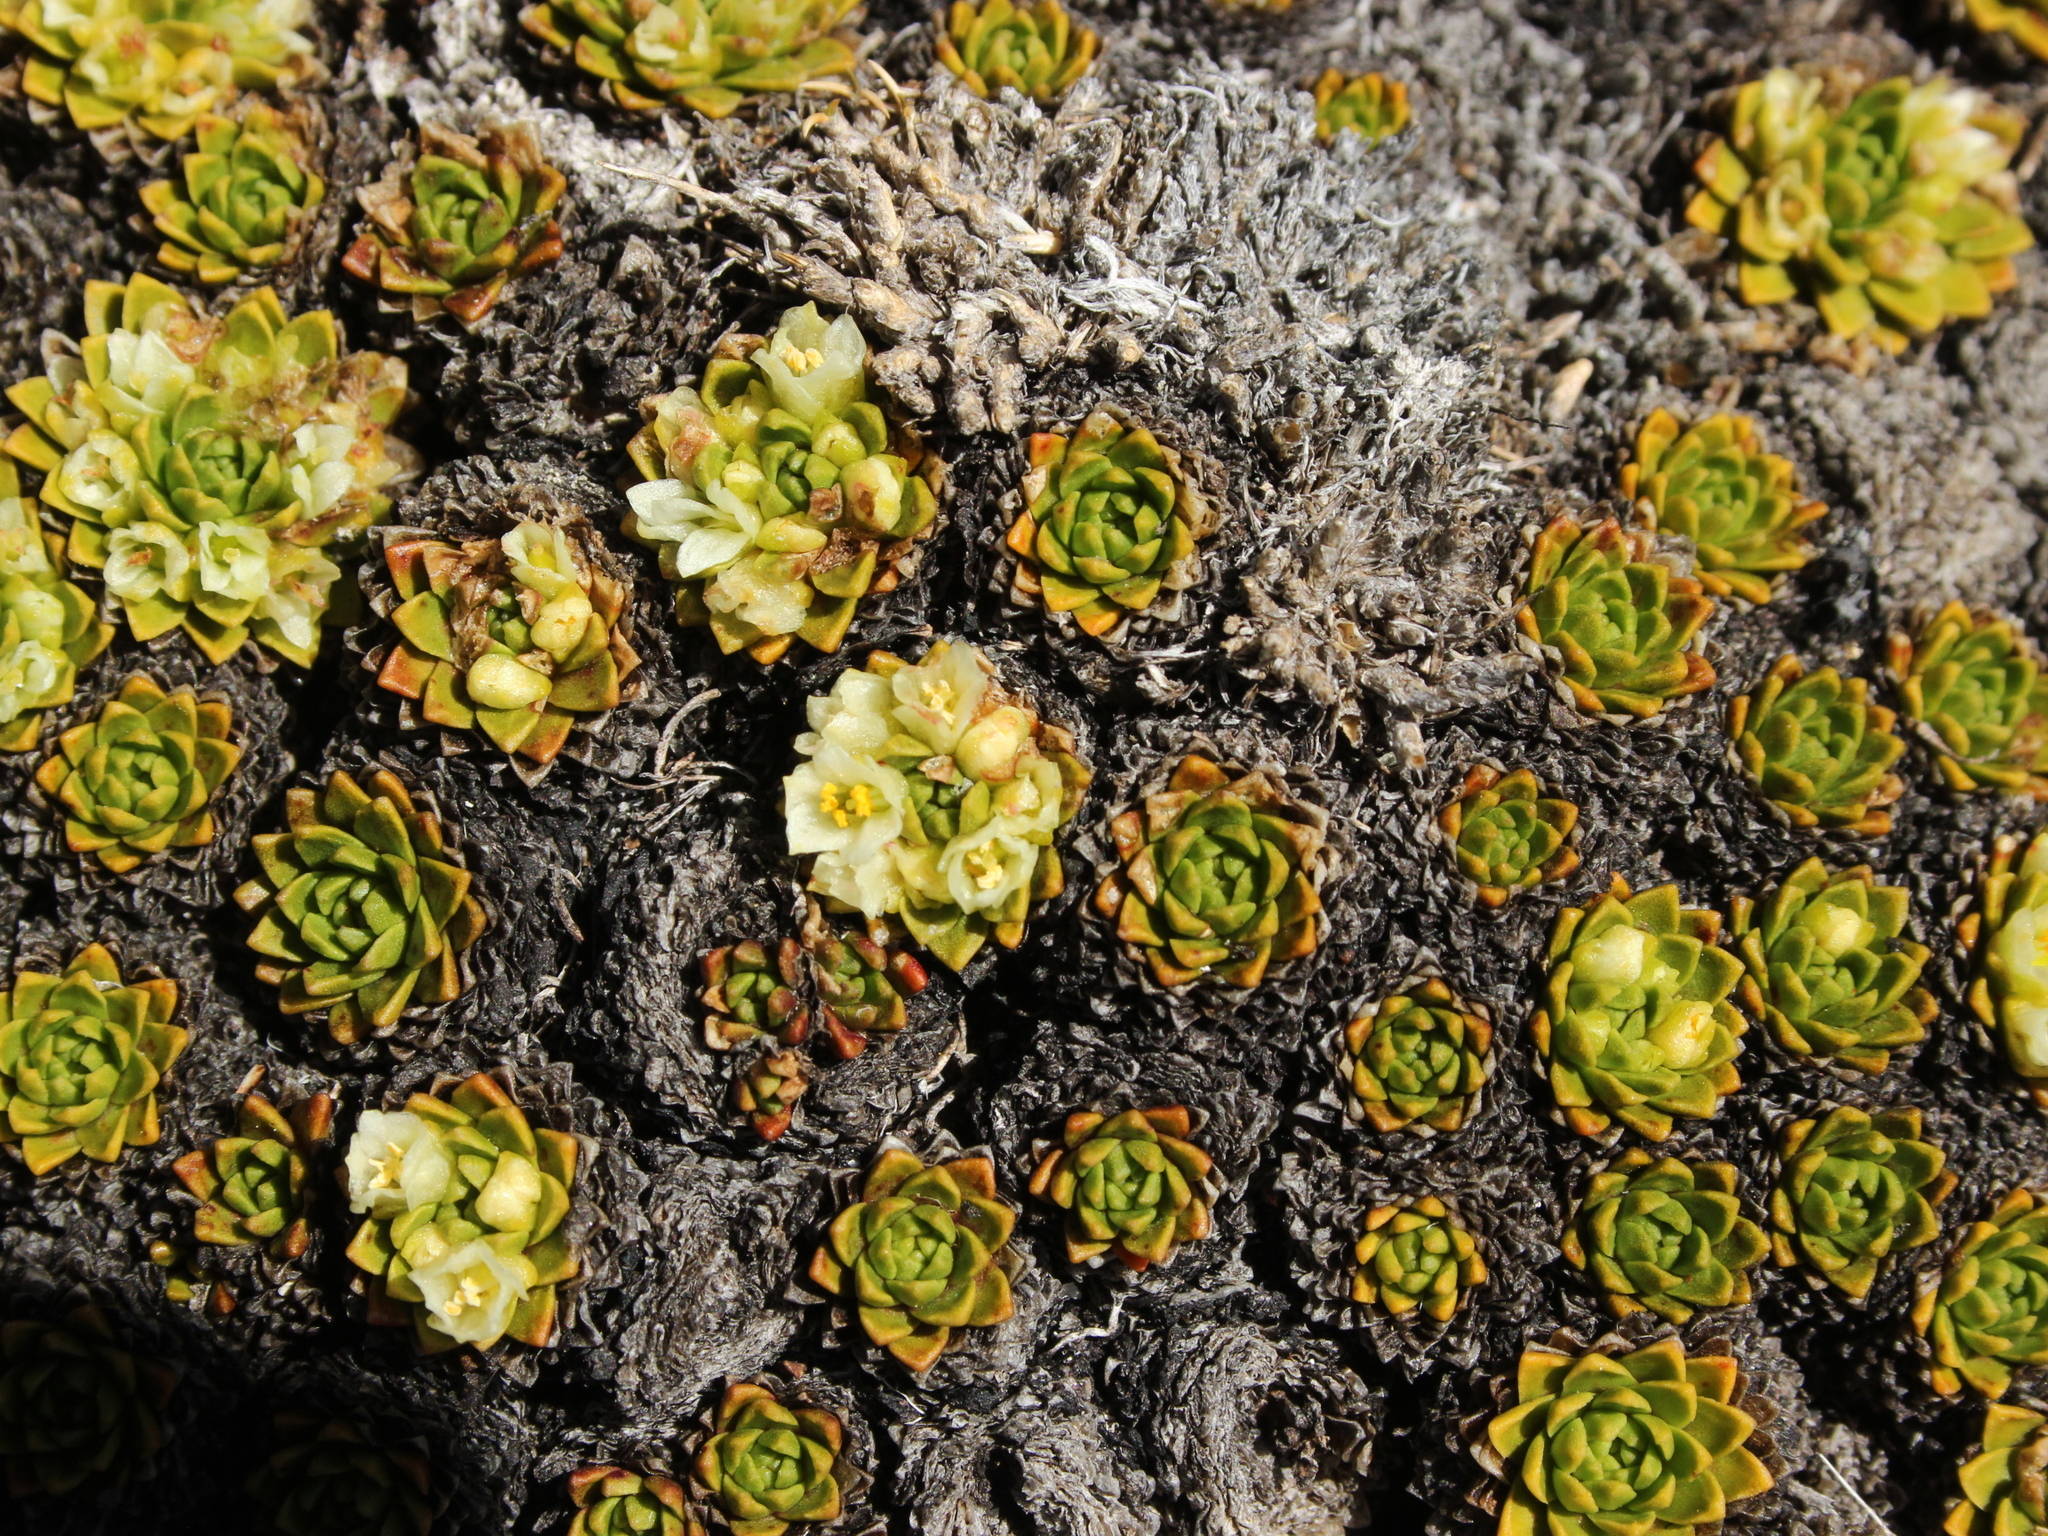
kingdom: Plantae
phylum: Tracheophyta
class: Magnoliopsida
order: Caryophyllales
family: Montiaceae
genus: Hectorella
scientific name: Hectorella caespitosa
